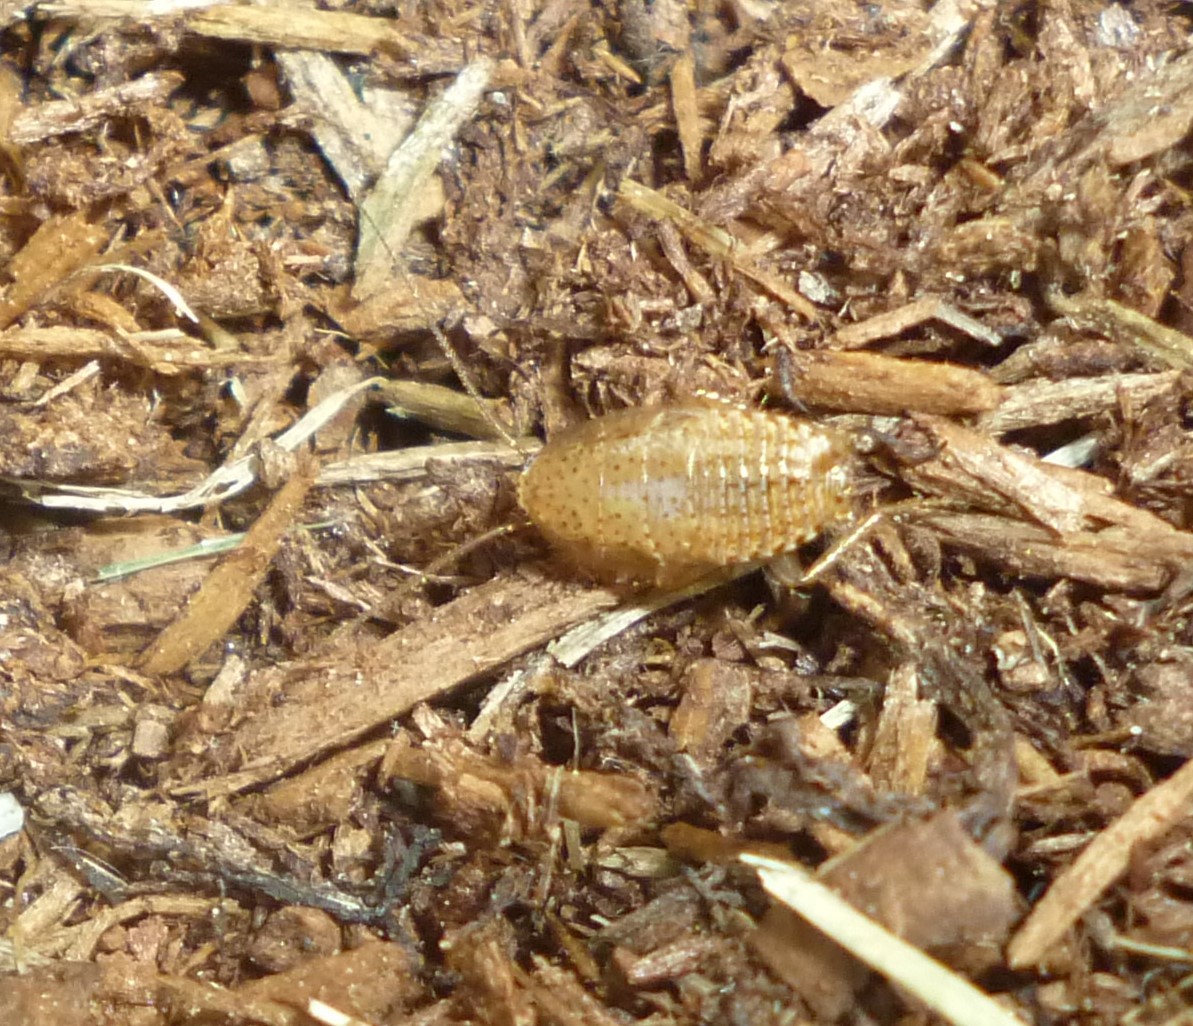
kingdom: Animalia
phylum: Arthropoda
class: Insecta
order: Blattodea
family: Ectobiidae
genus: Ectobius
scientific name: Ectobius pallidus
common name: Tawny cockroach
